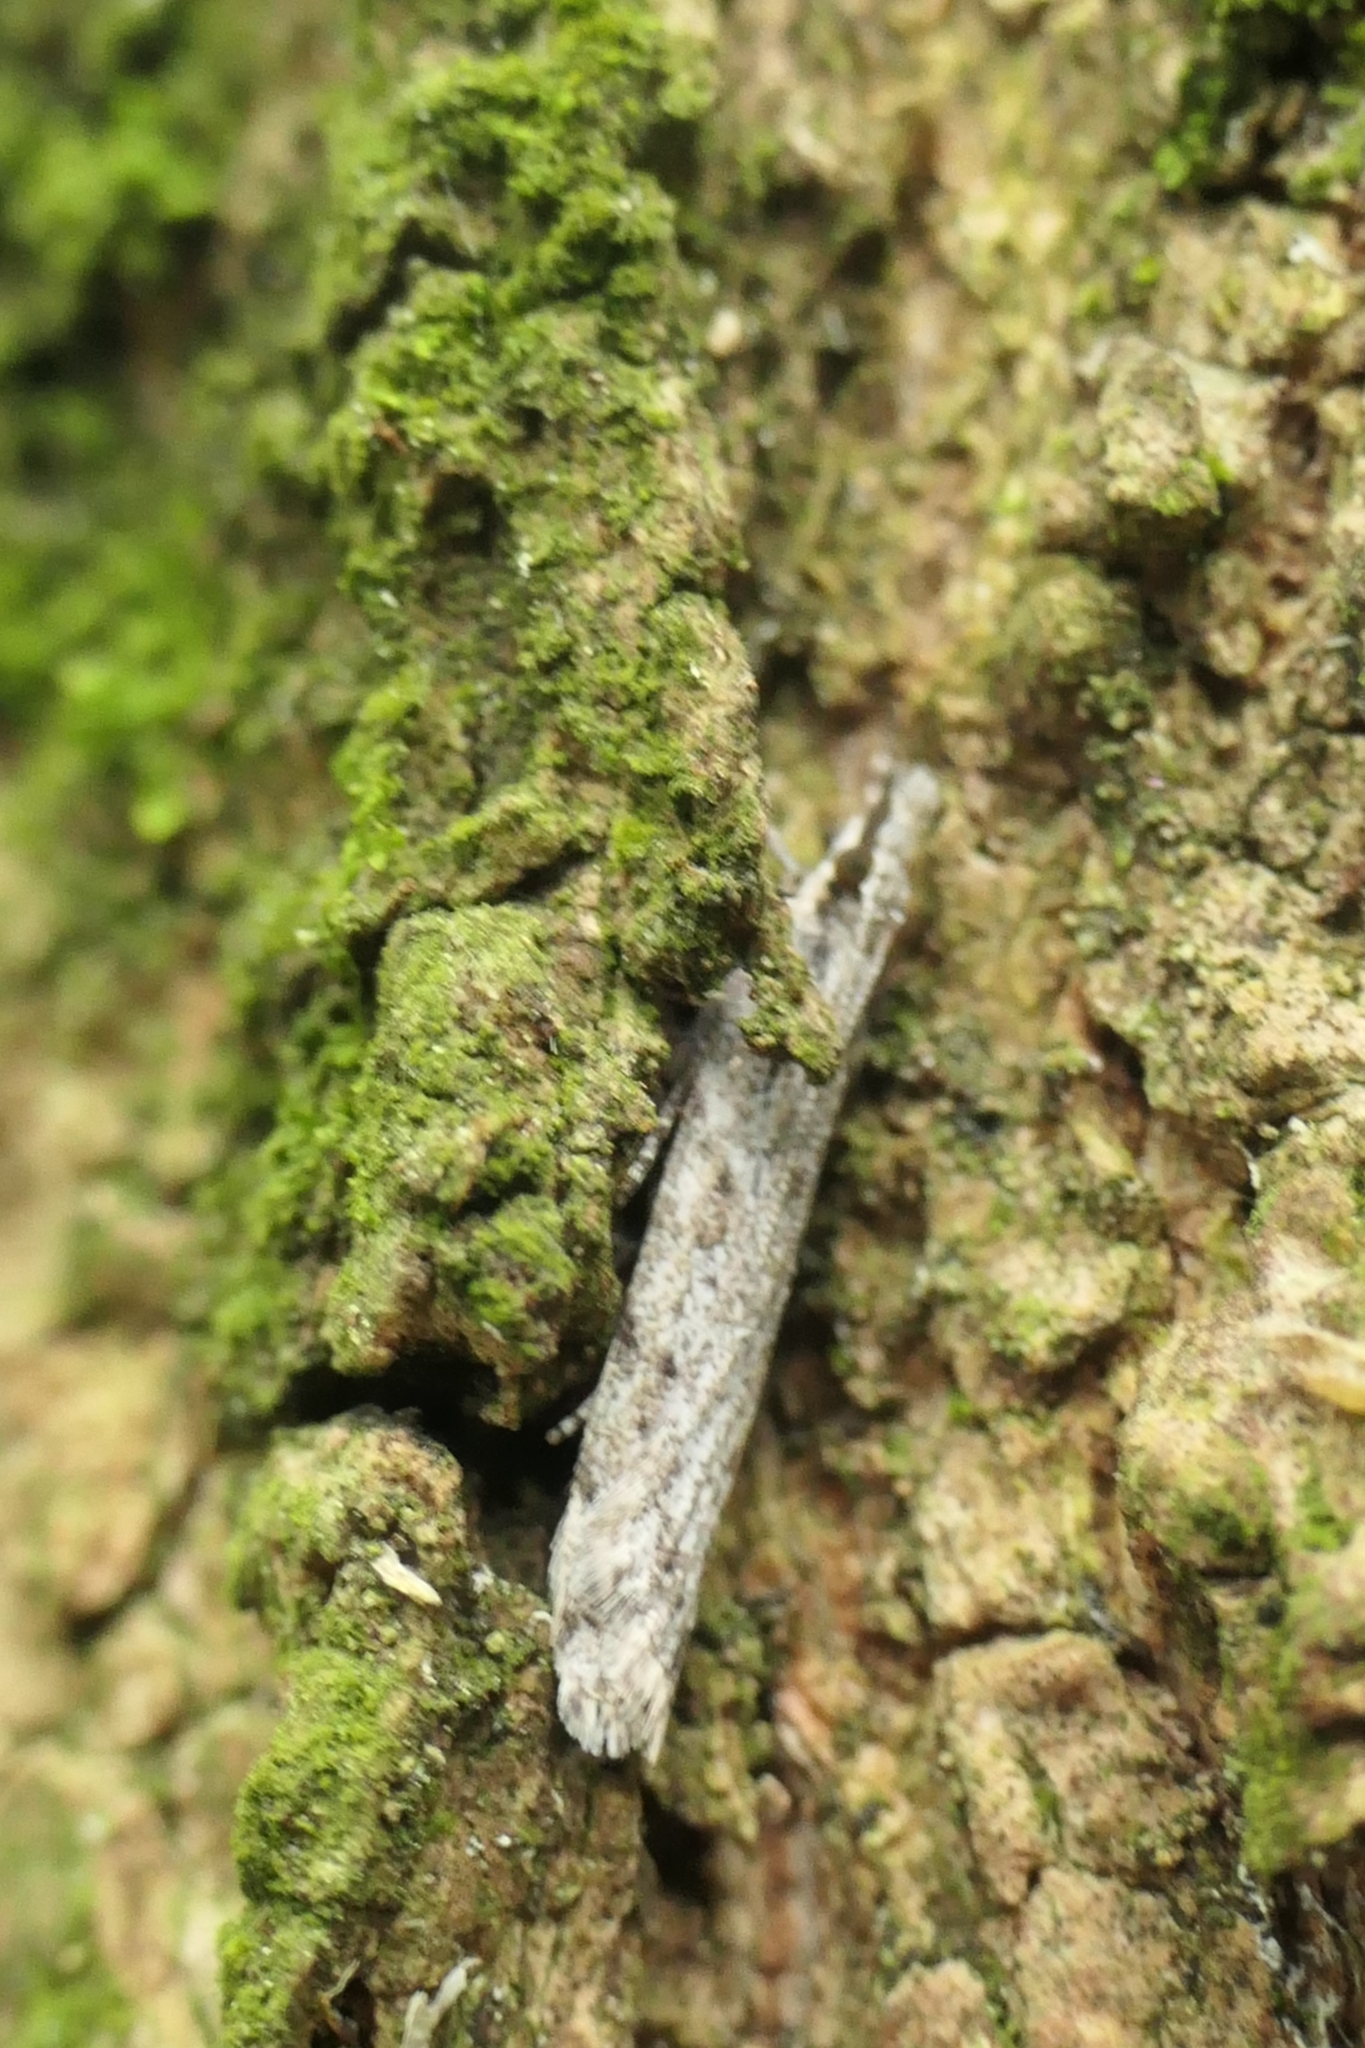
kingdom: Animalia
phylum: Arthropoda
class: Insecta
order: Lepidoptera
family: Crambidae
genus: Scoparia
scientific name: Scoparia chalicodes
